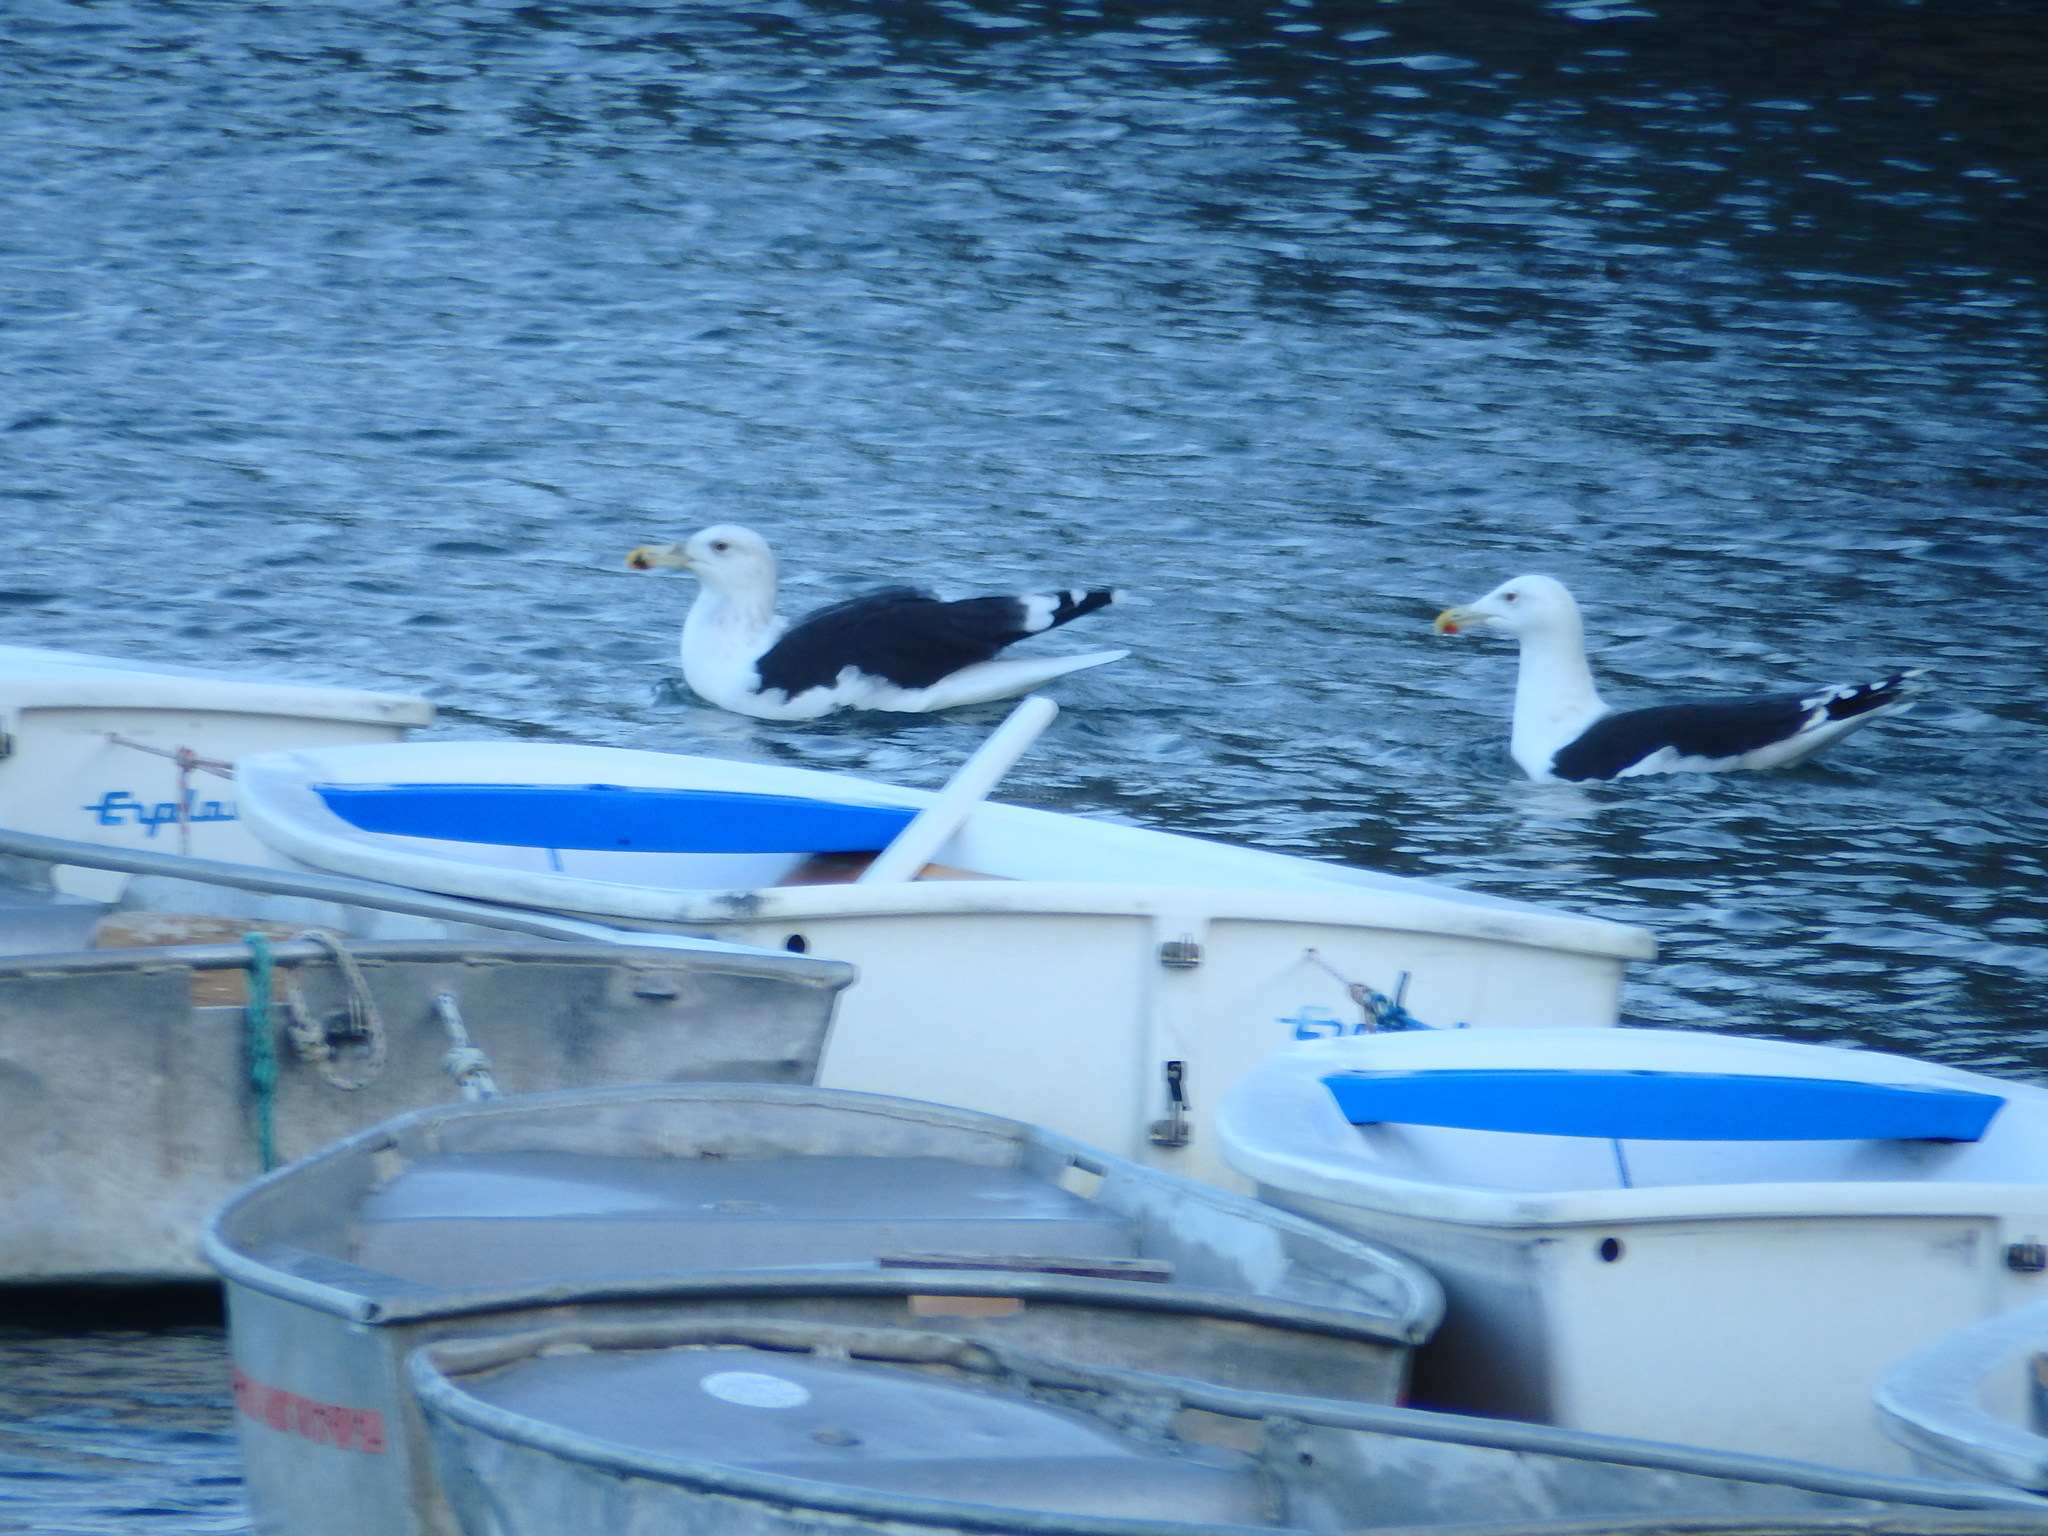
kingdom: Animalia
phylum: Chordata
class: Aves
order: Charadriiformes
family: Laridae
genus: Larus
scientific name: Larus marinus
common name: Great black-backed gull
